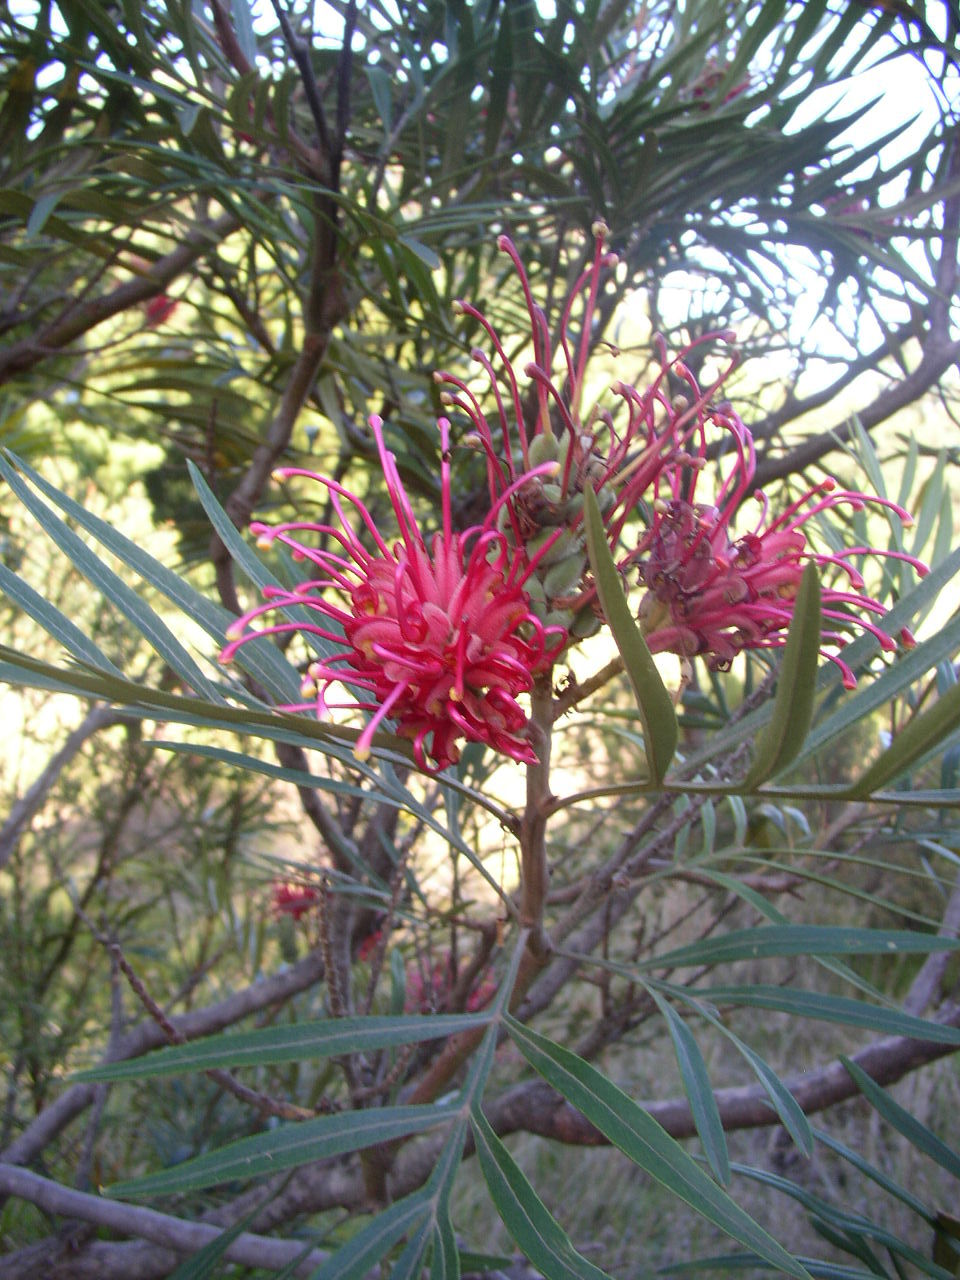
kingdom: Plantae
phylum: Tracheophyta
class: Magnoliopsida
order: Proteales
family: Proteaceae
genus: Grevillea
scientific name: Grevillea banksii
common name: Kahili flower
